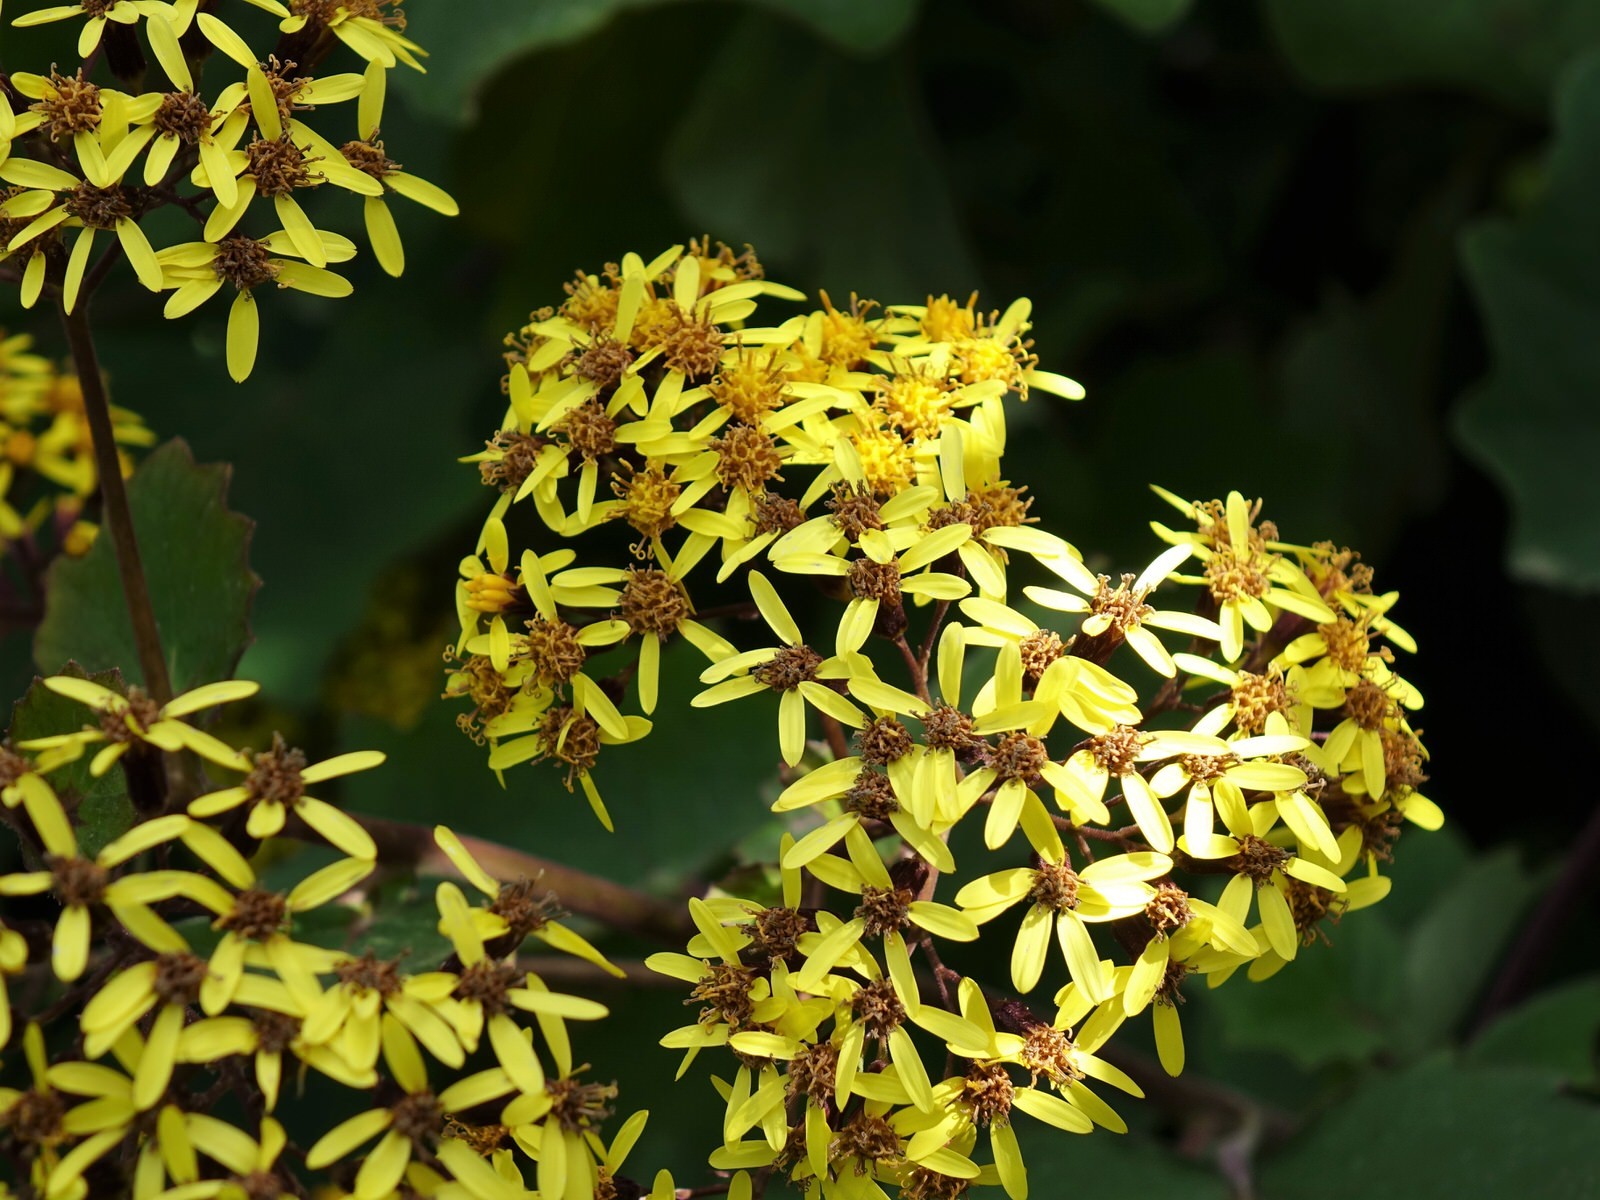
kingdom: Plantae
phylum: Tracheophyta
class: Magnoliopsida
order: Asterales
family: Asteraceae
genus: Roldana
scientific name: Roldana petasitis
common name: California-geranium
